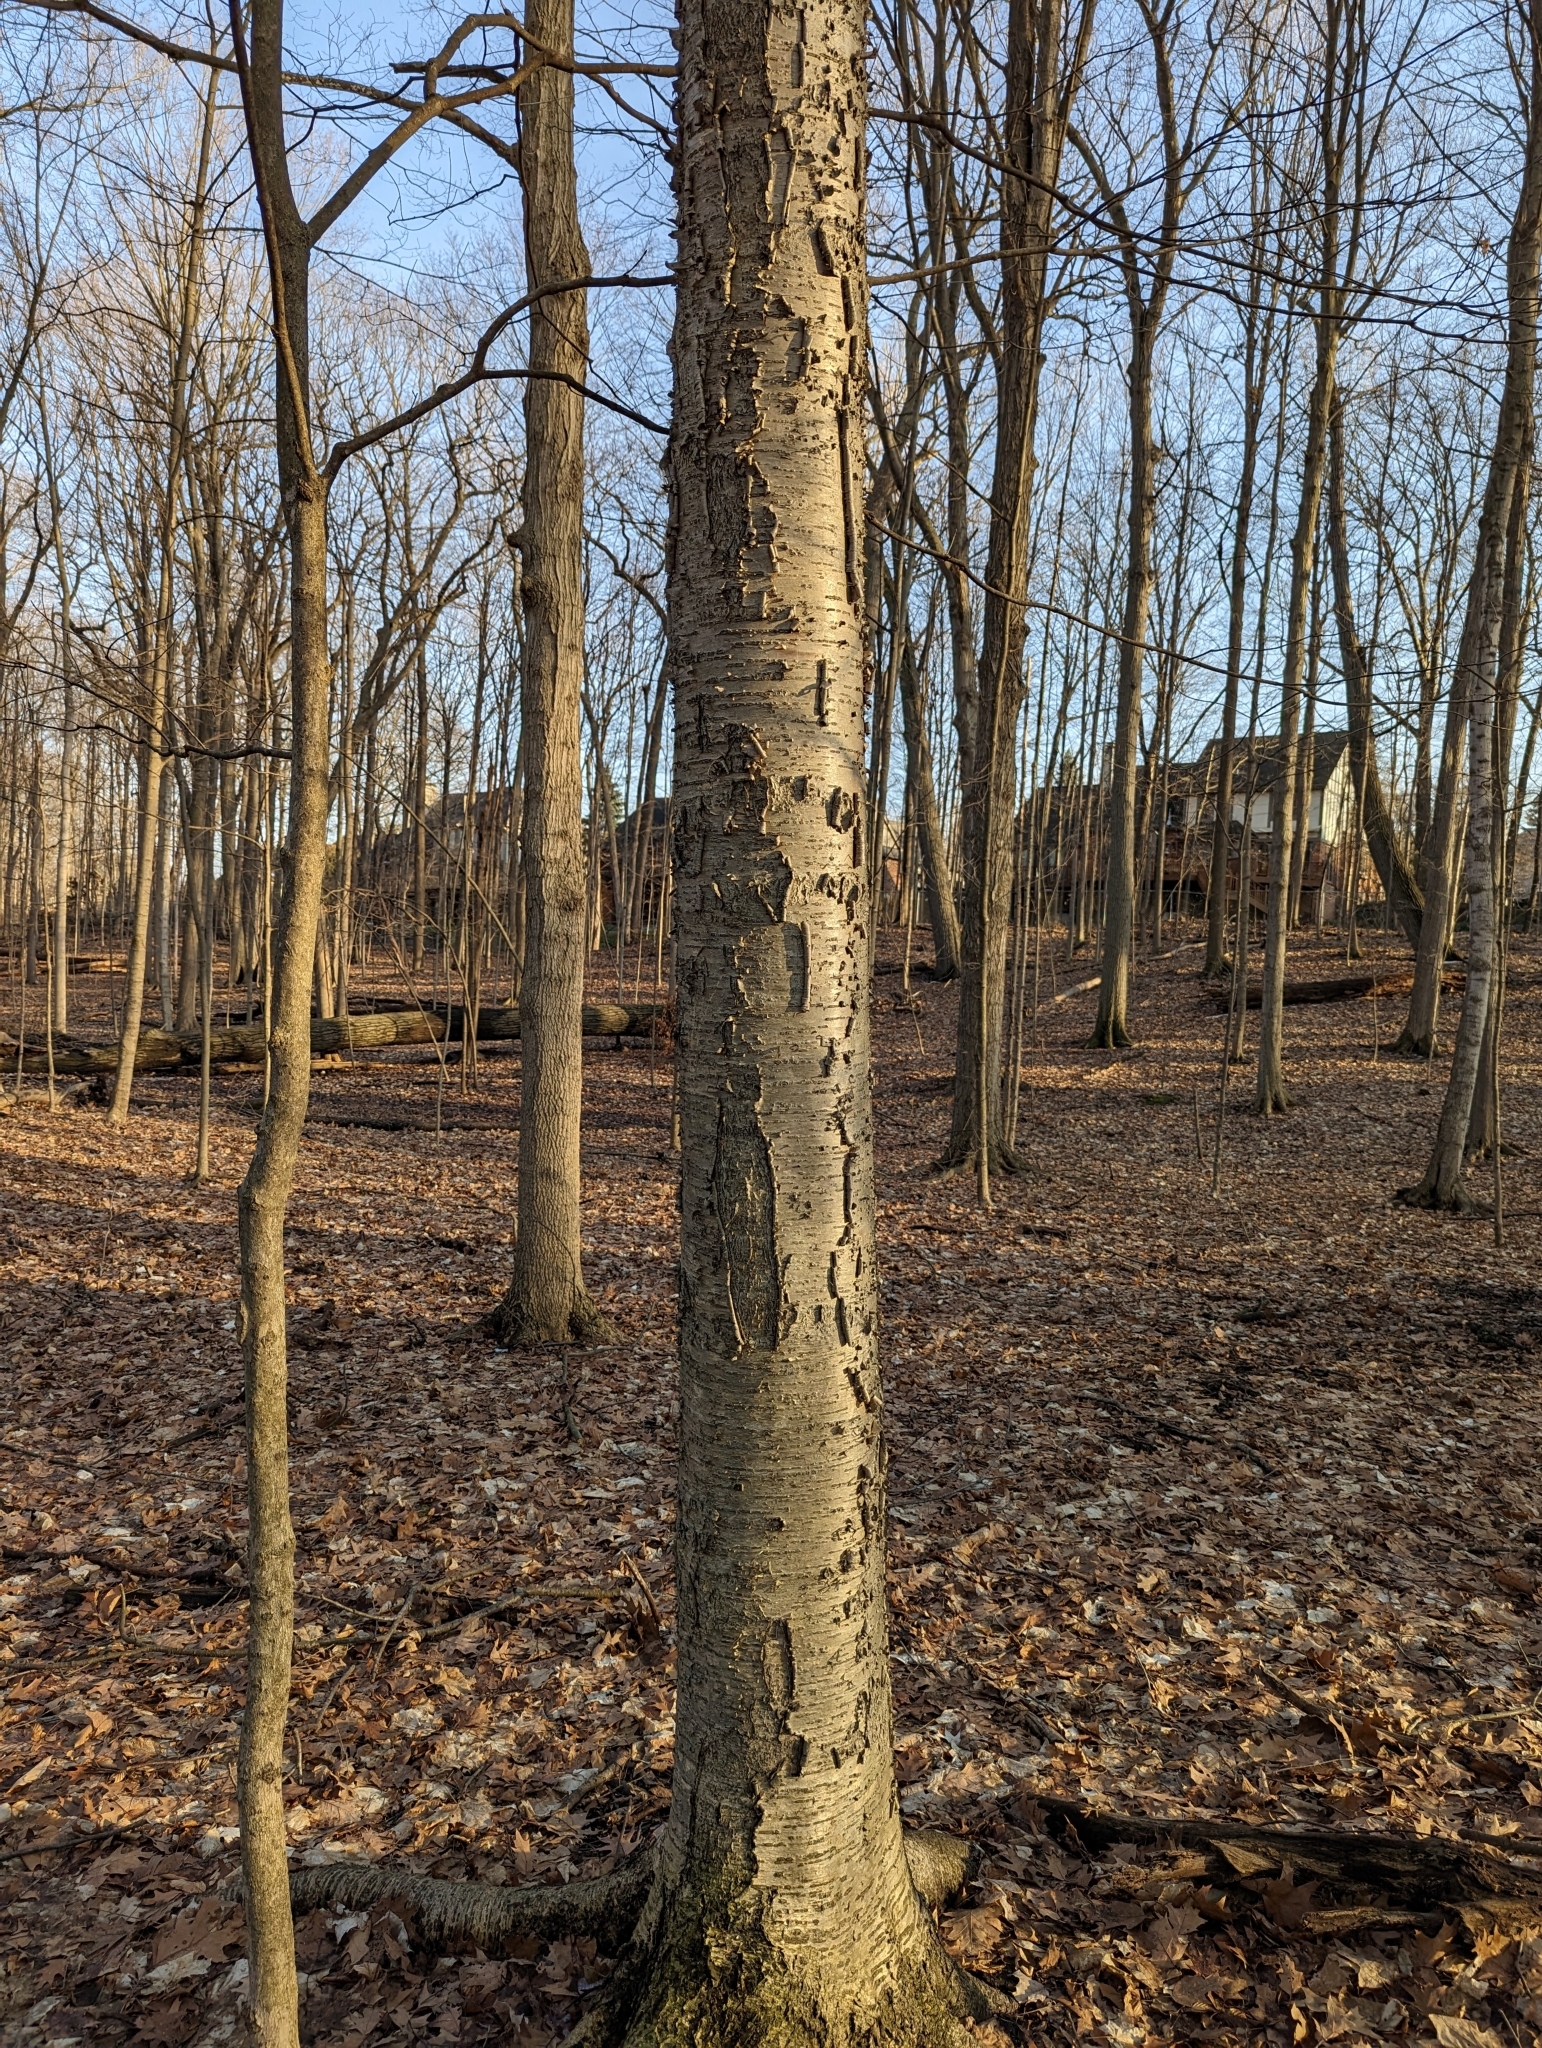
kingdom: Plantae
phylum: Tracheophyta
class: Magnoliopsida
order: Fagales
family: Betulaceae
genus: Betula
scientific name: Betula alleghaniensis
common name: Yellow birch
